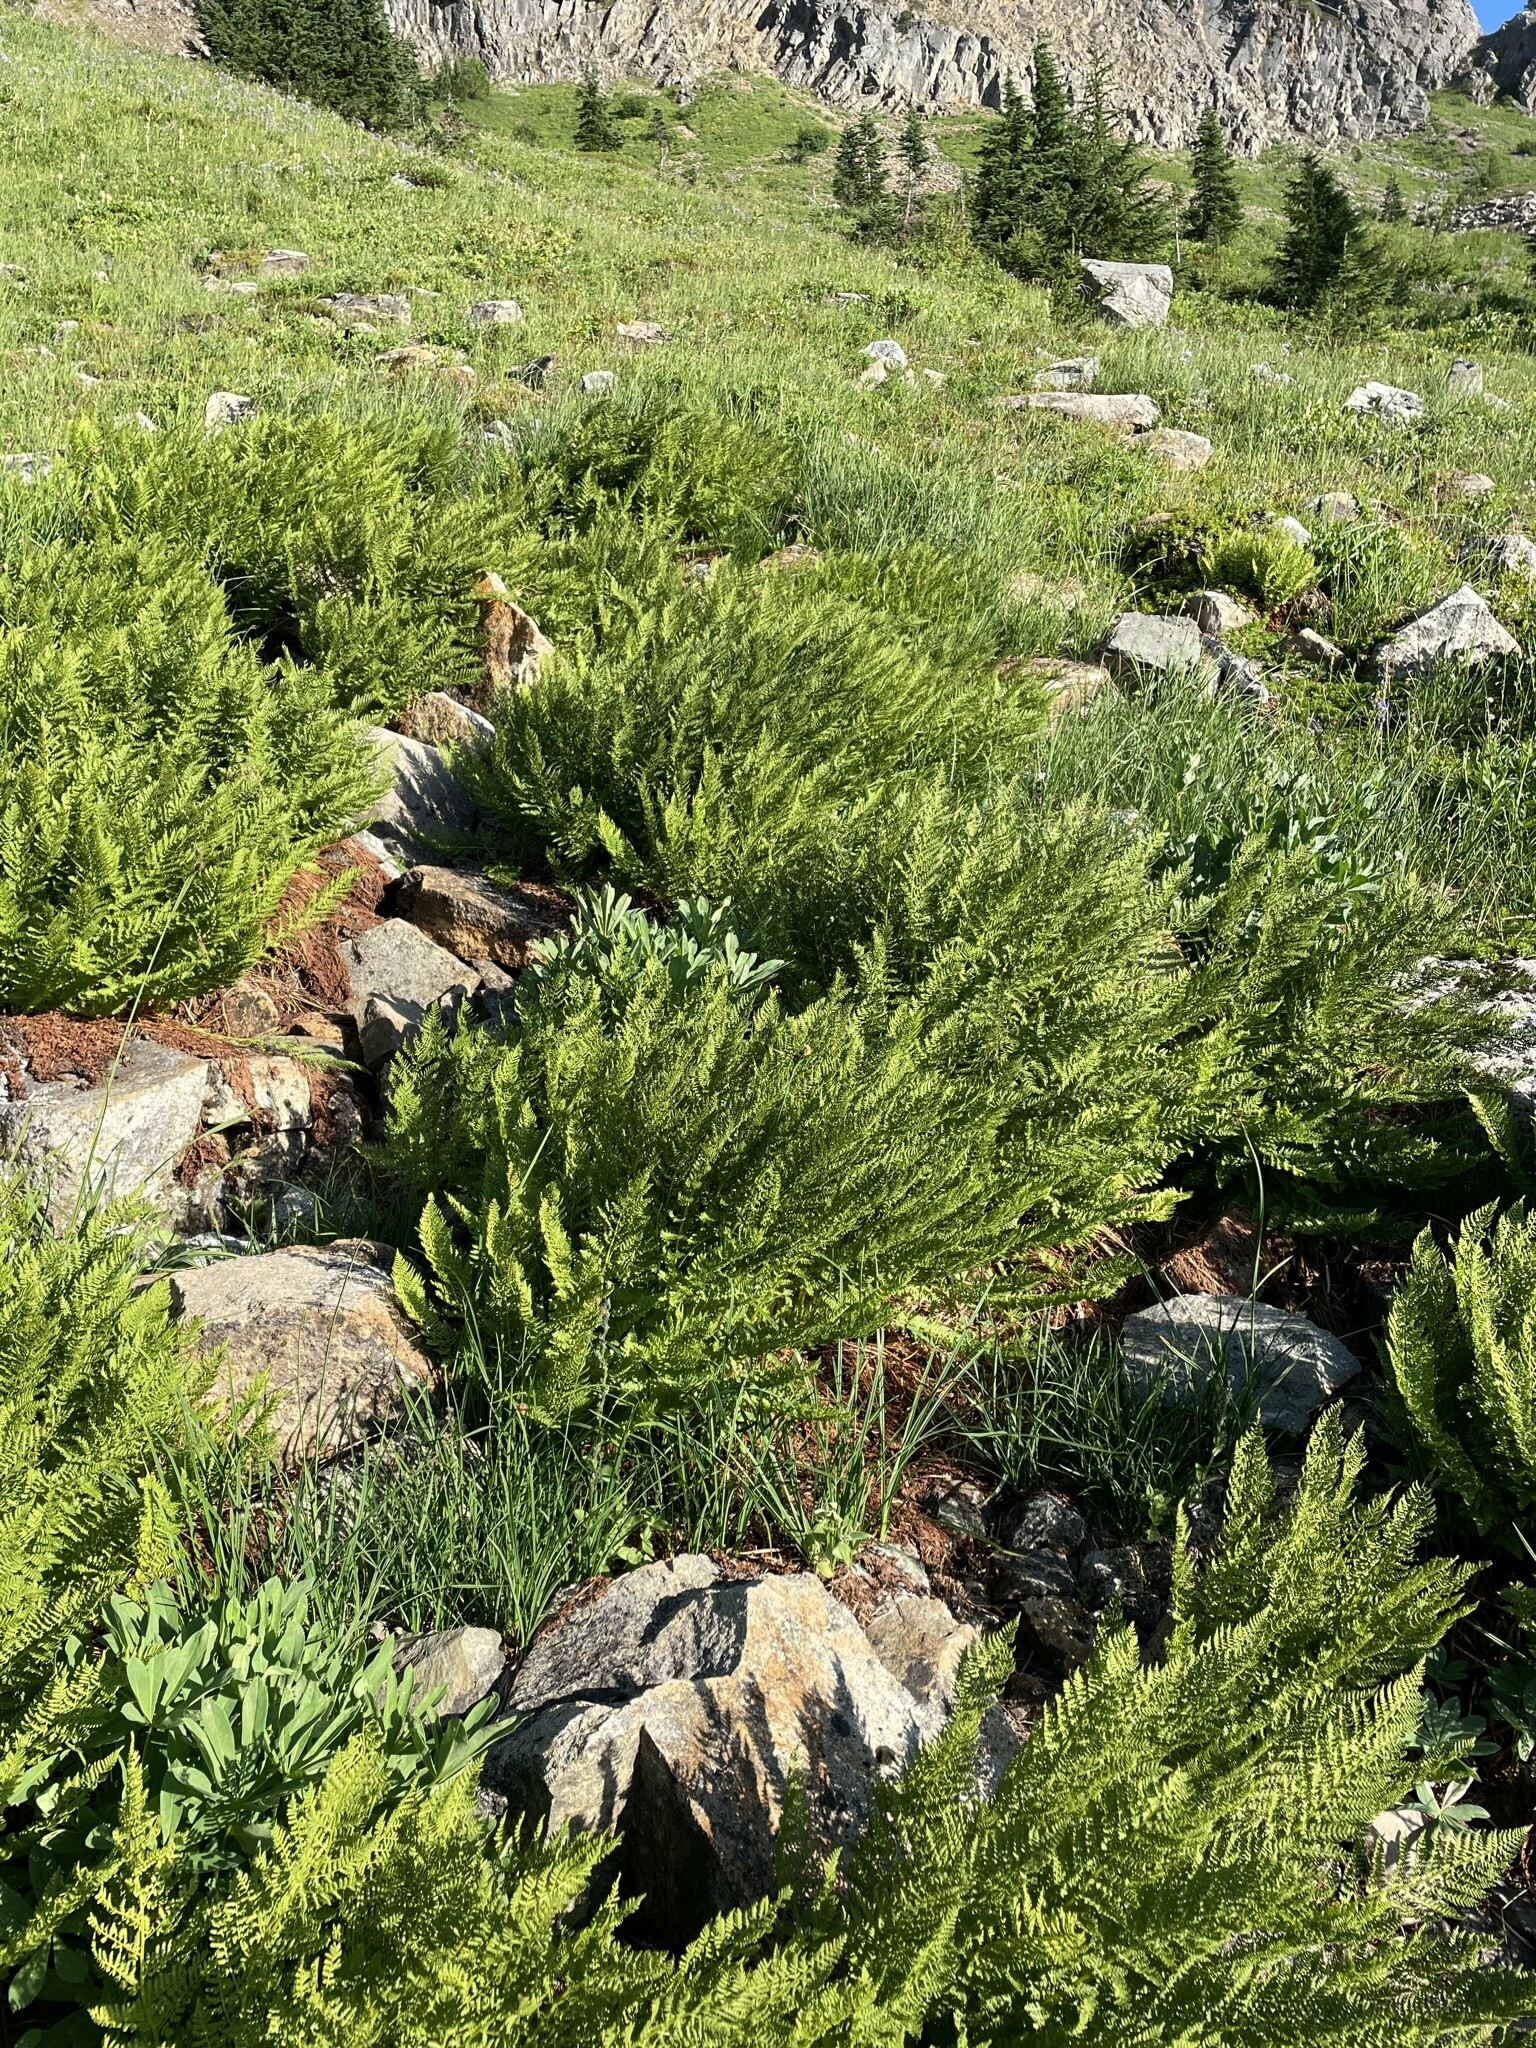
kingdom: Plantae
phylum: Tracheophyta
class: Polypodiopsida
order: Polypodiales
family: Athyriaceae
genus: Athyrium
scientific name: Athyrium americanum
